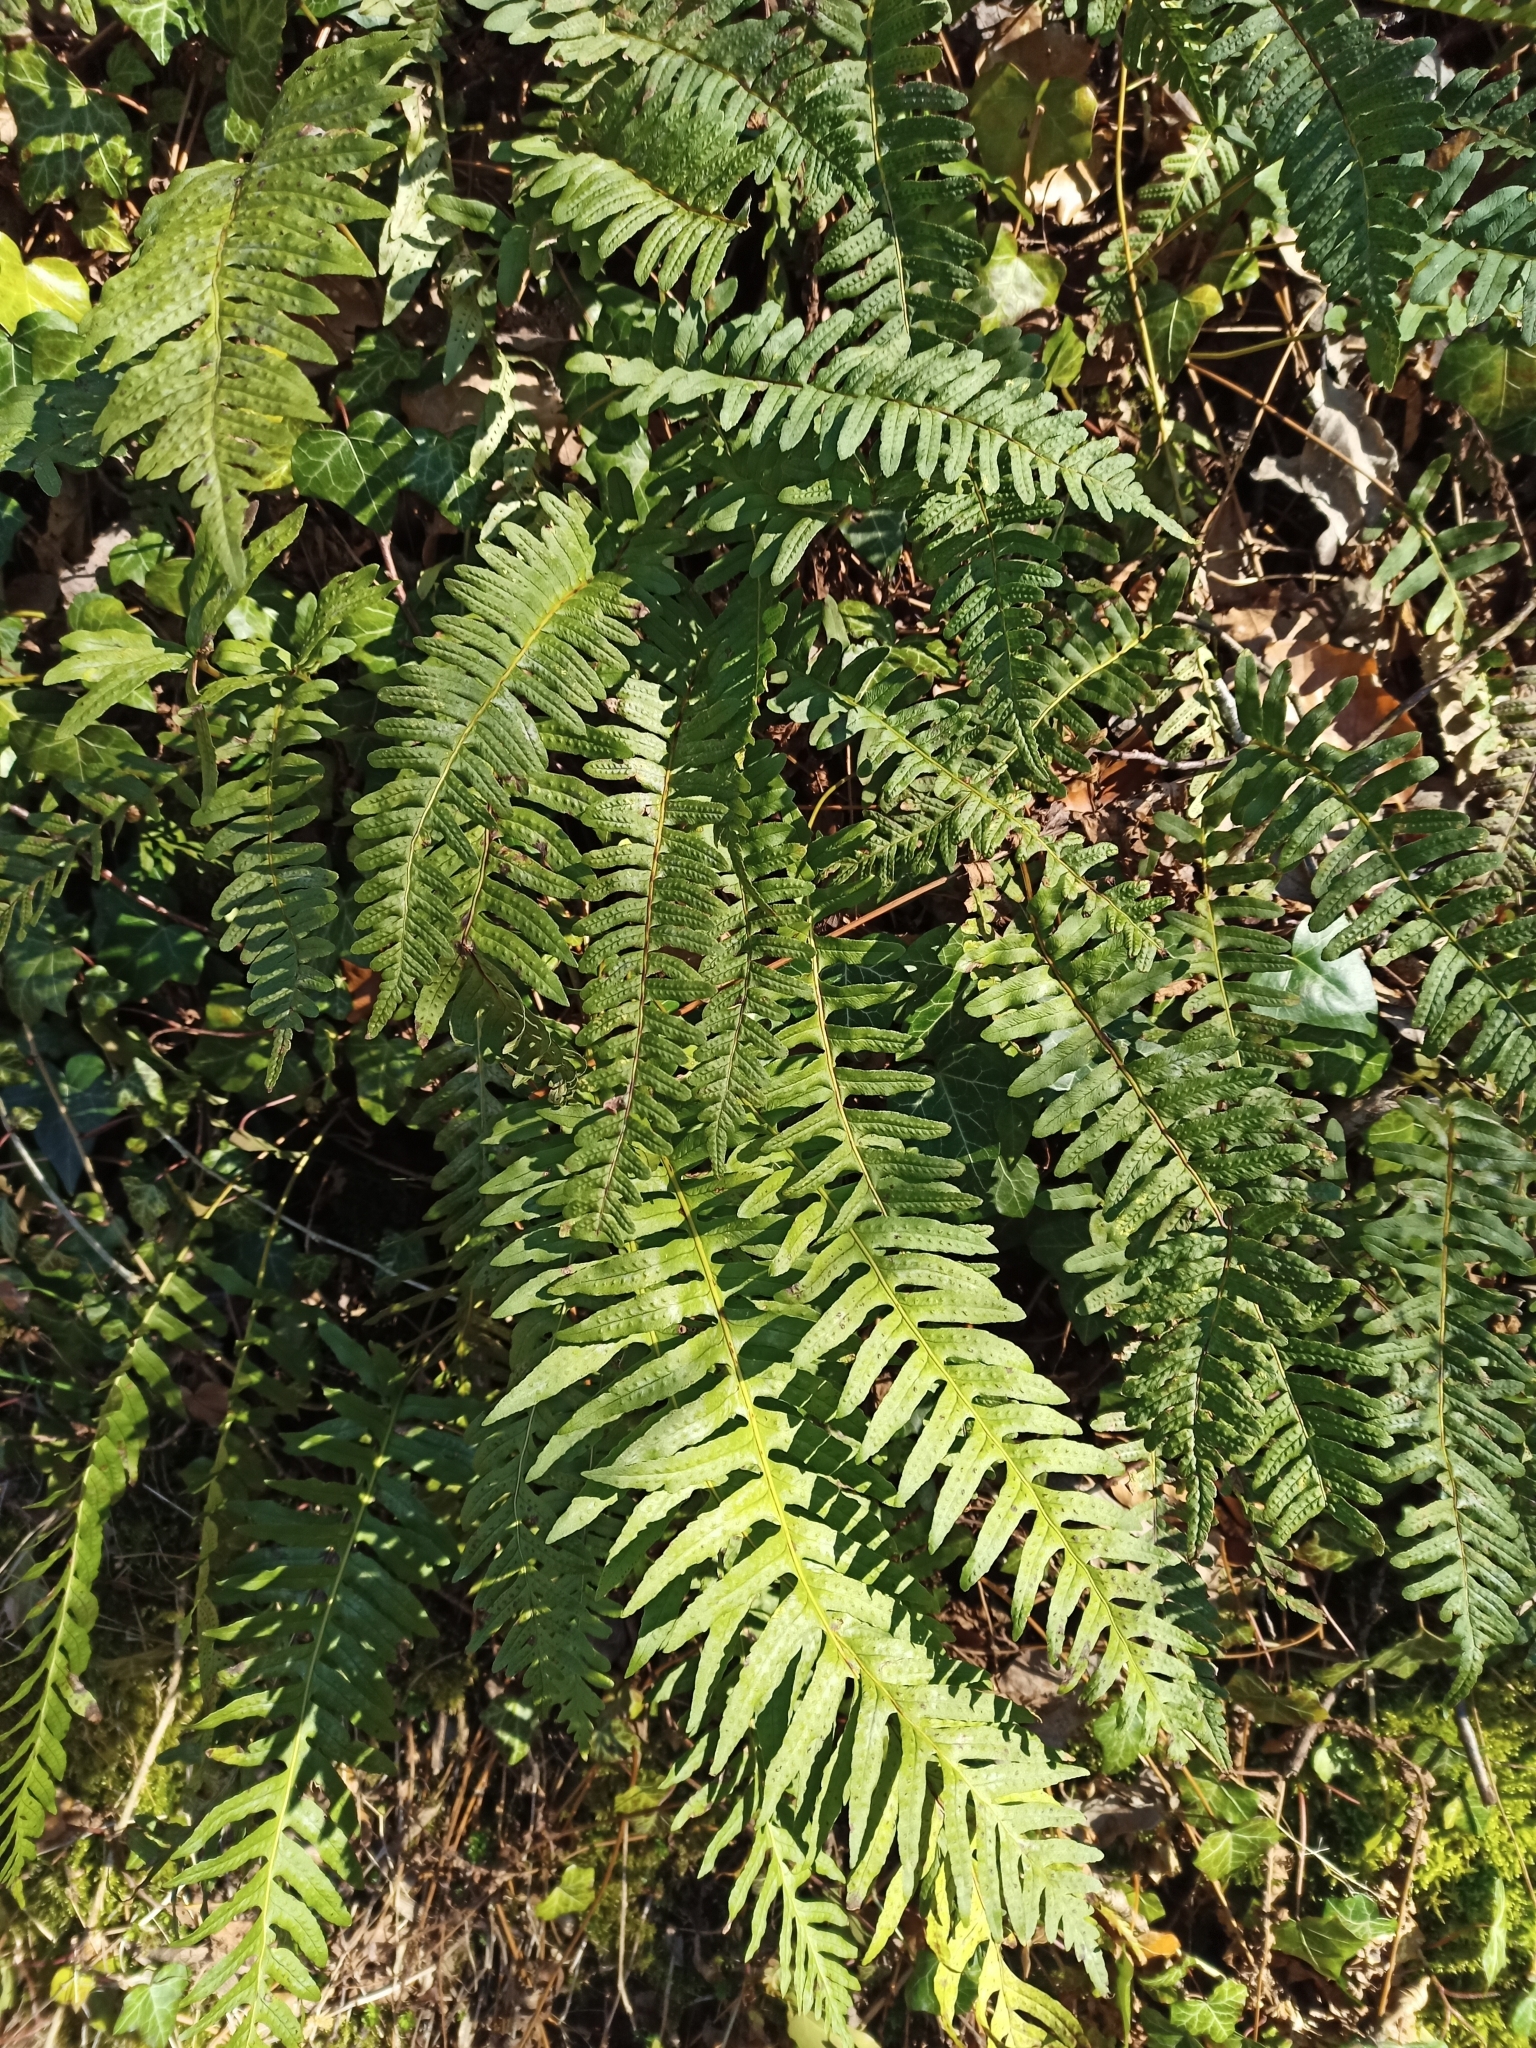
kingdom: Plantae
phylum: Tracheophyta
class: Polypodiopsida
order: Polypodiales
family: Polypodiaceae
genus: Polypodium
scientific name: Polypodium vulgare
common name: Common polypody
